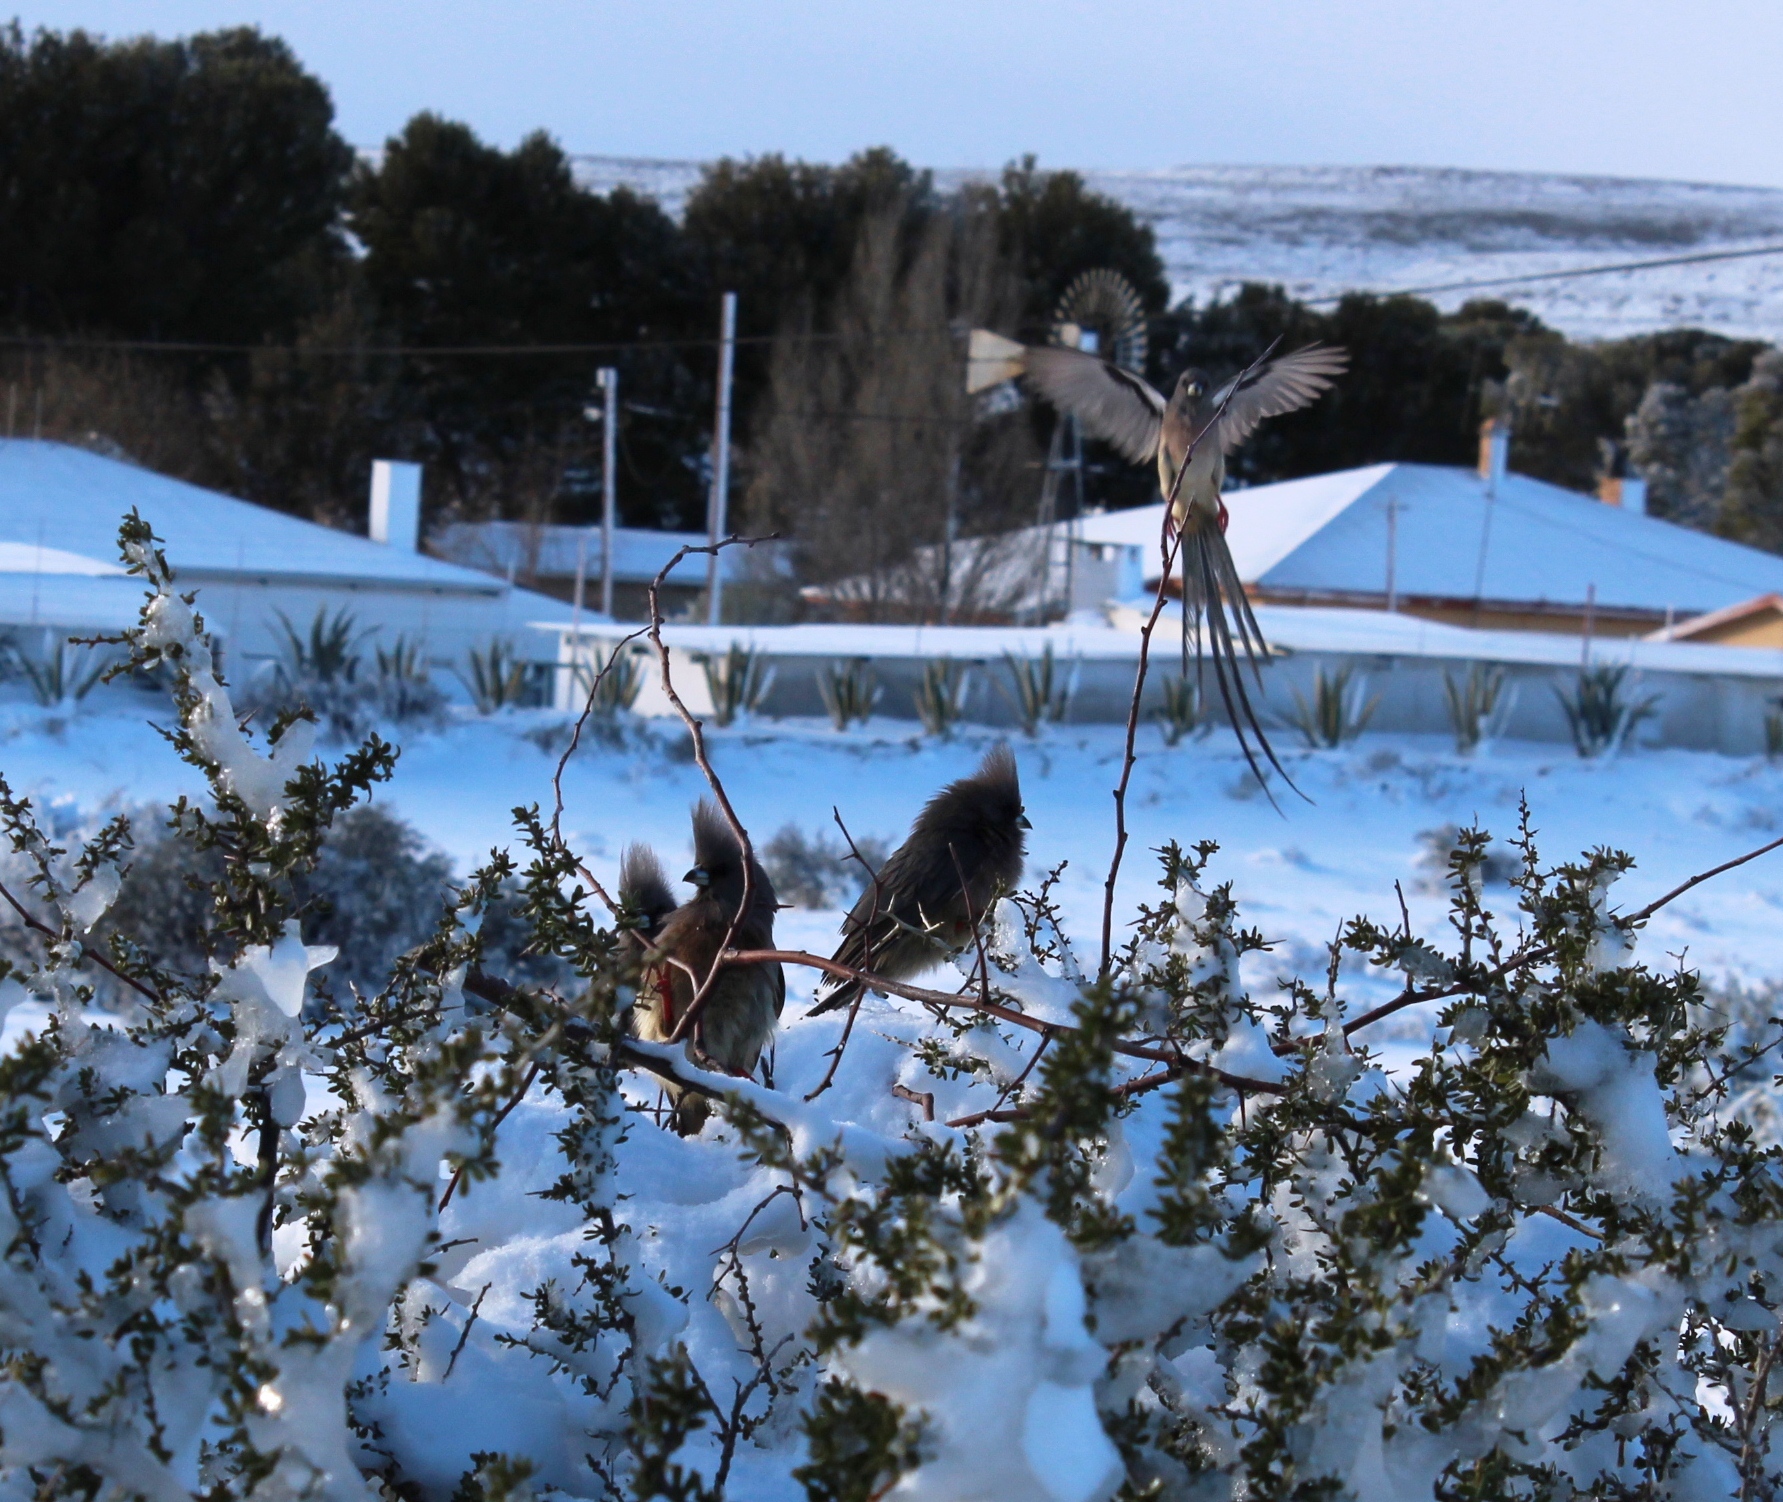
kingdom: Animalia
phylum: Chordata
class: Aves
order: Coliiformes
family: Coliidae
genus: Colius
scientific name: Colius colius
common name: White-backed mousebird
